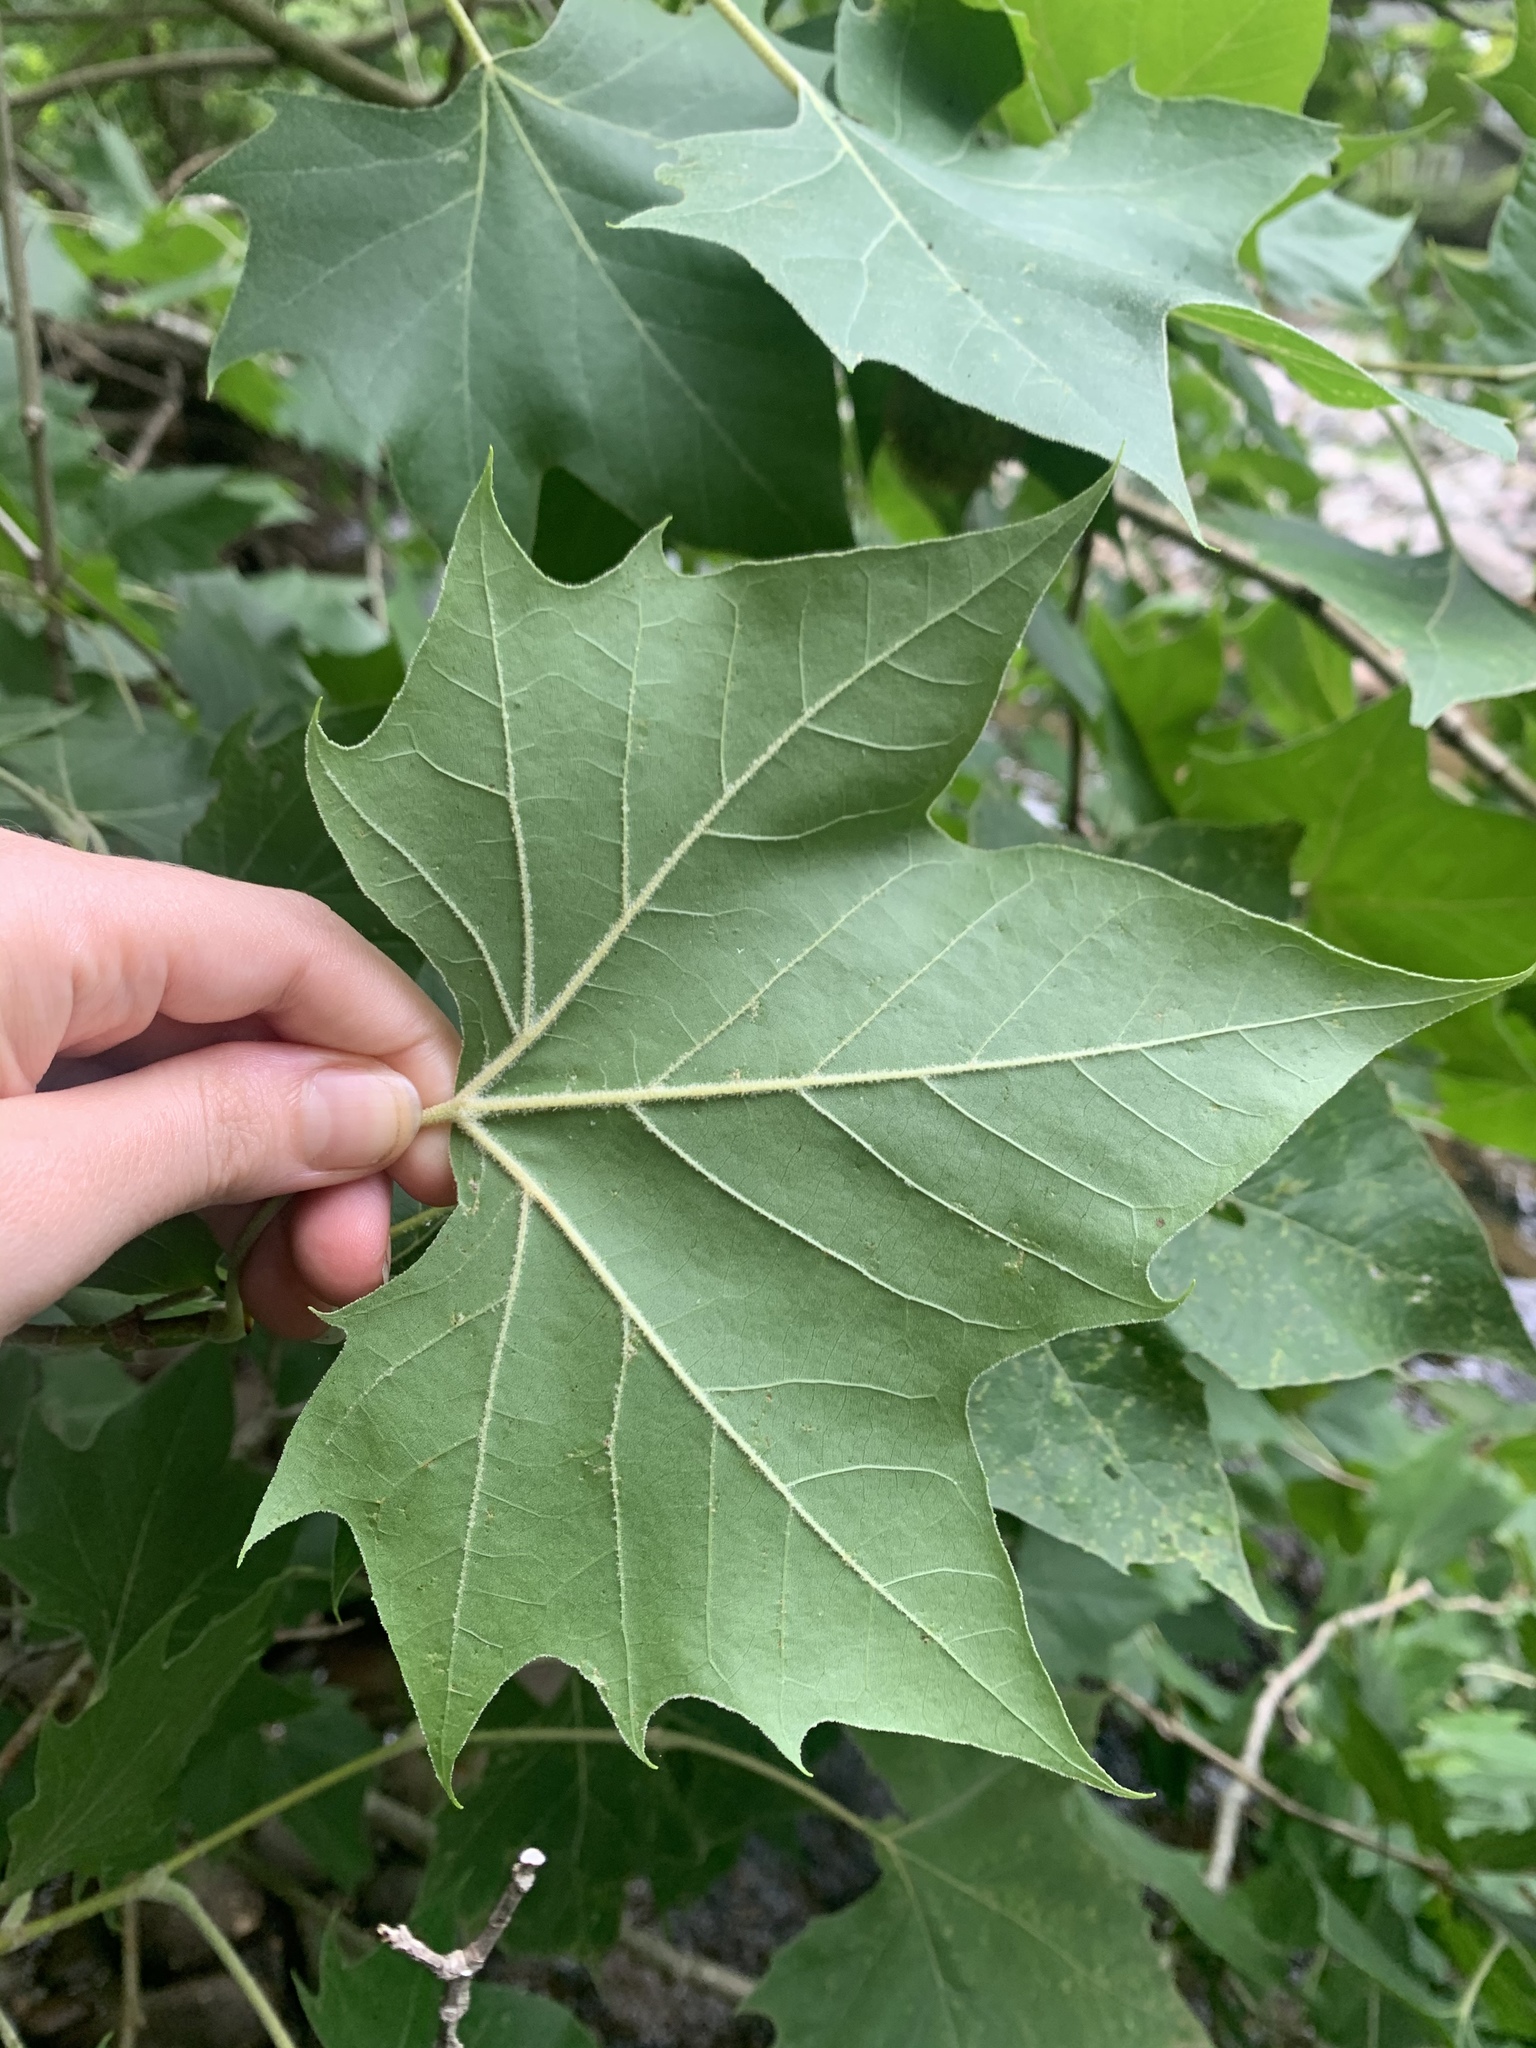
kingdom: Plantae
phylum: Tracheophyta
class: Magnoliopsida
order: Proteales
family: Platanaceae
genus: Platanus
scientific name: Platanus occidentalis
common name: American sycamore
